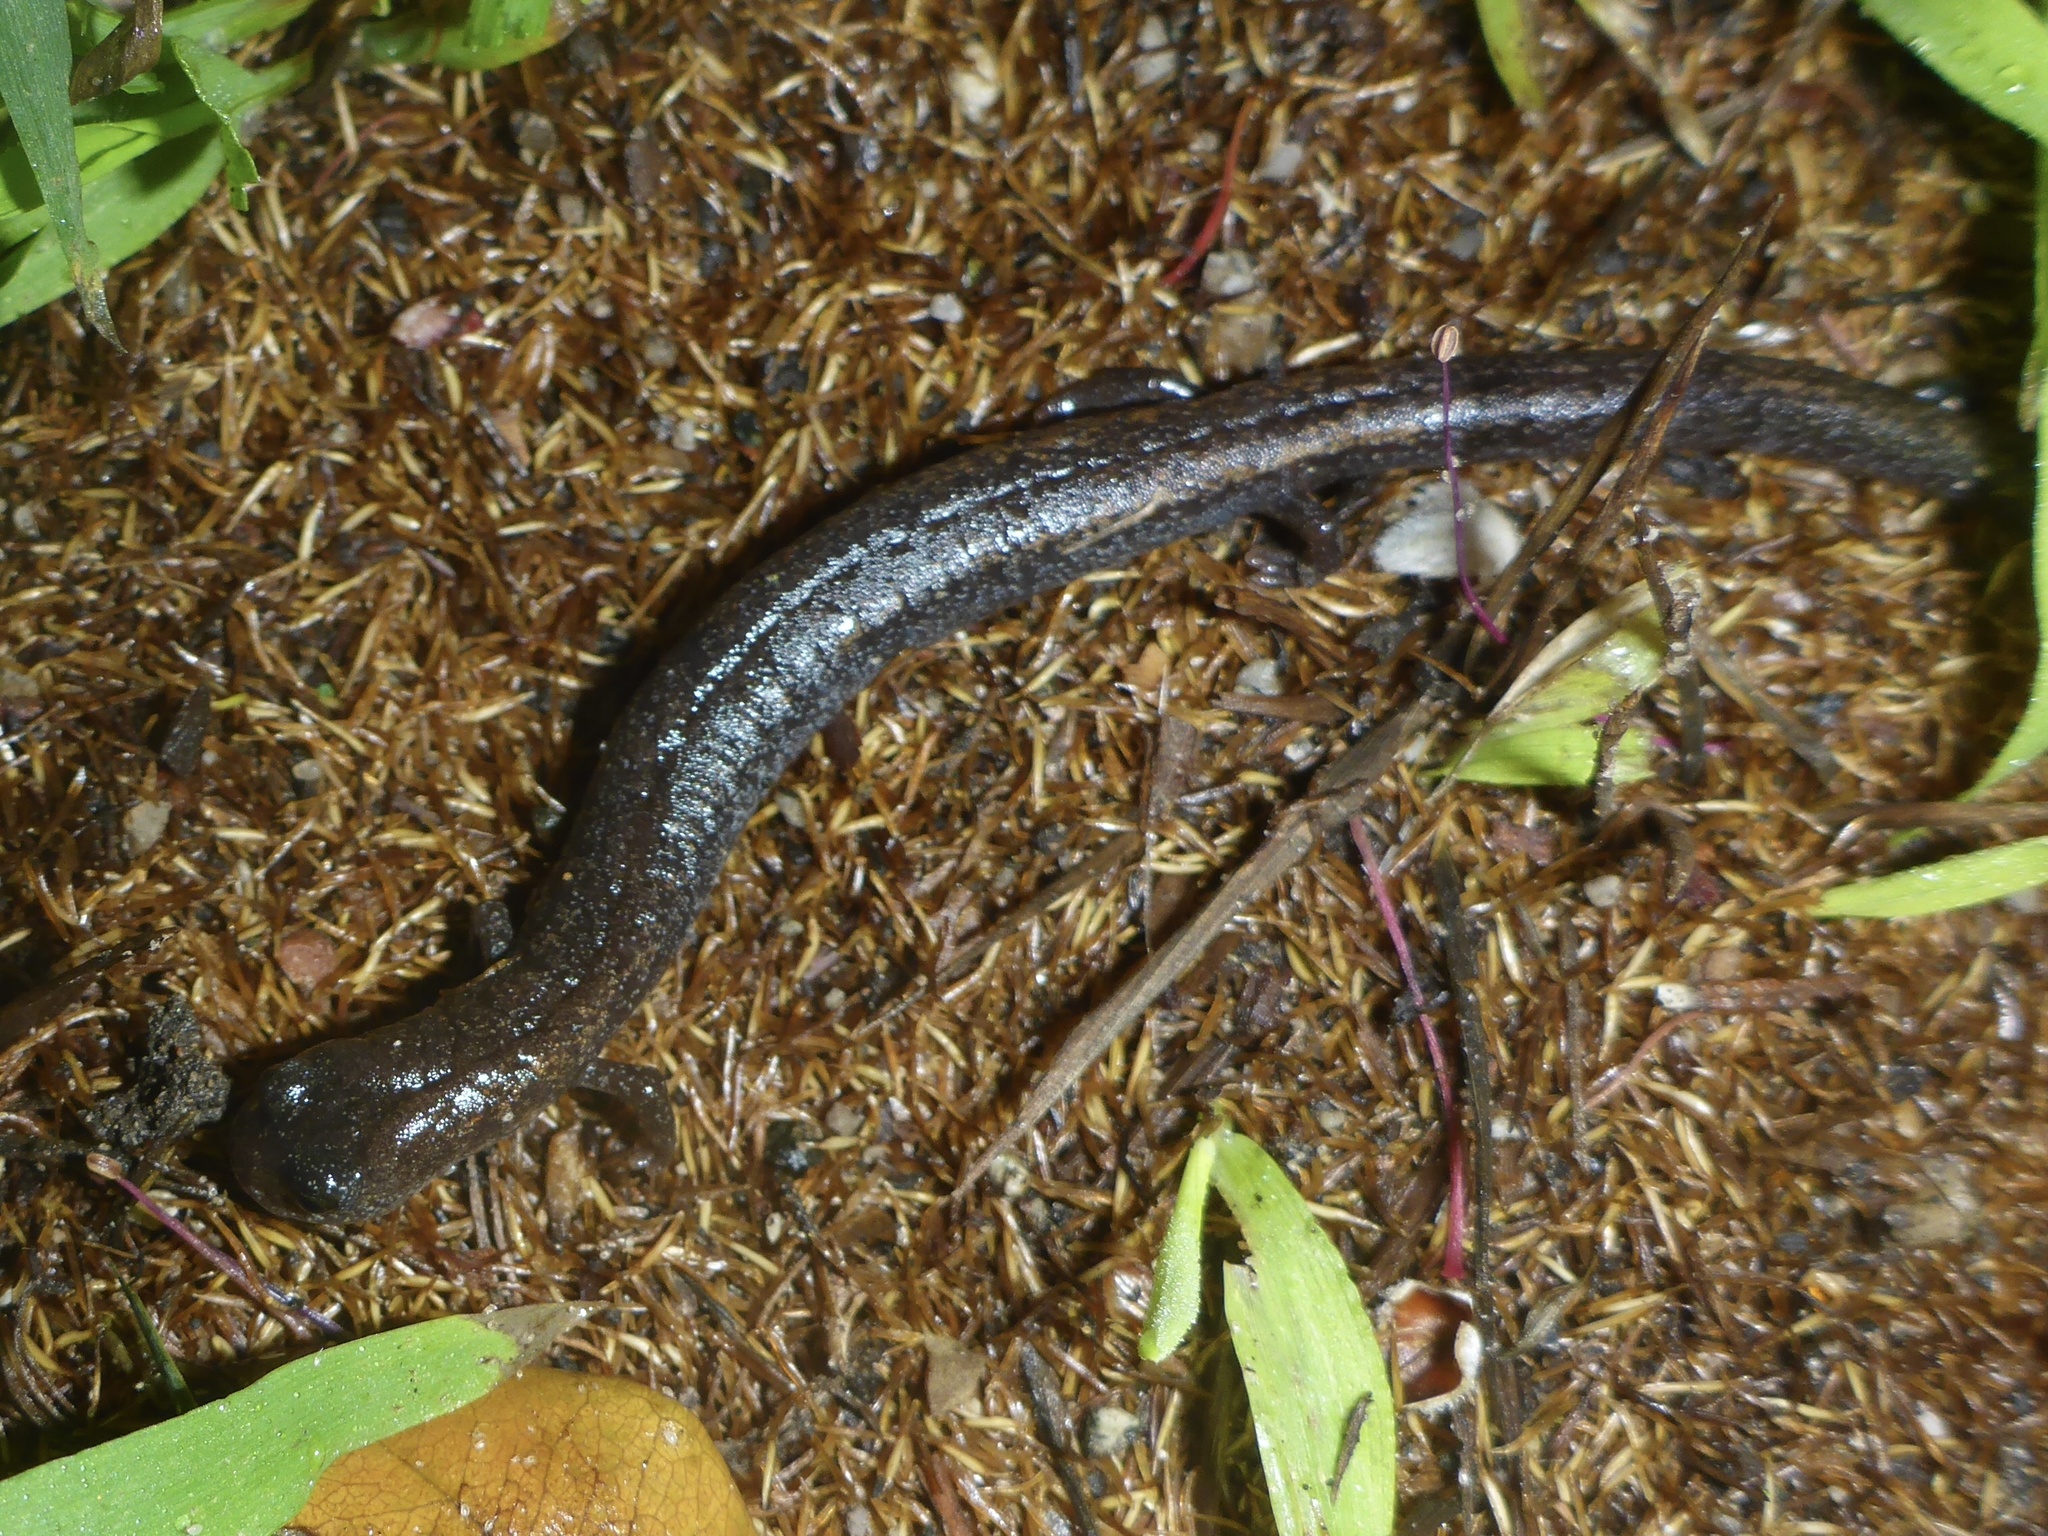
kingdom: Animalia
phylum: Chordata
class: Amphibia
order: Caudata
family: Plethodontidae
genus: Batrachoseps
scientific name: Batrachoseps attenuatus
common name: California slender salamander
